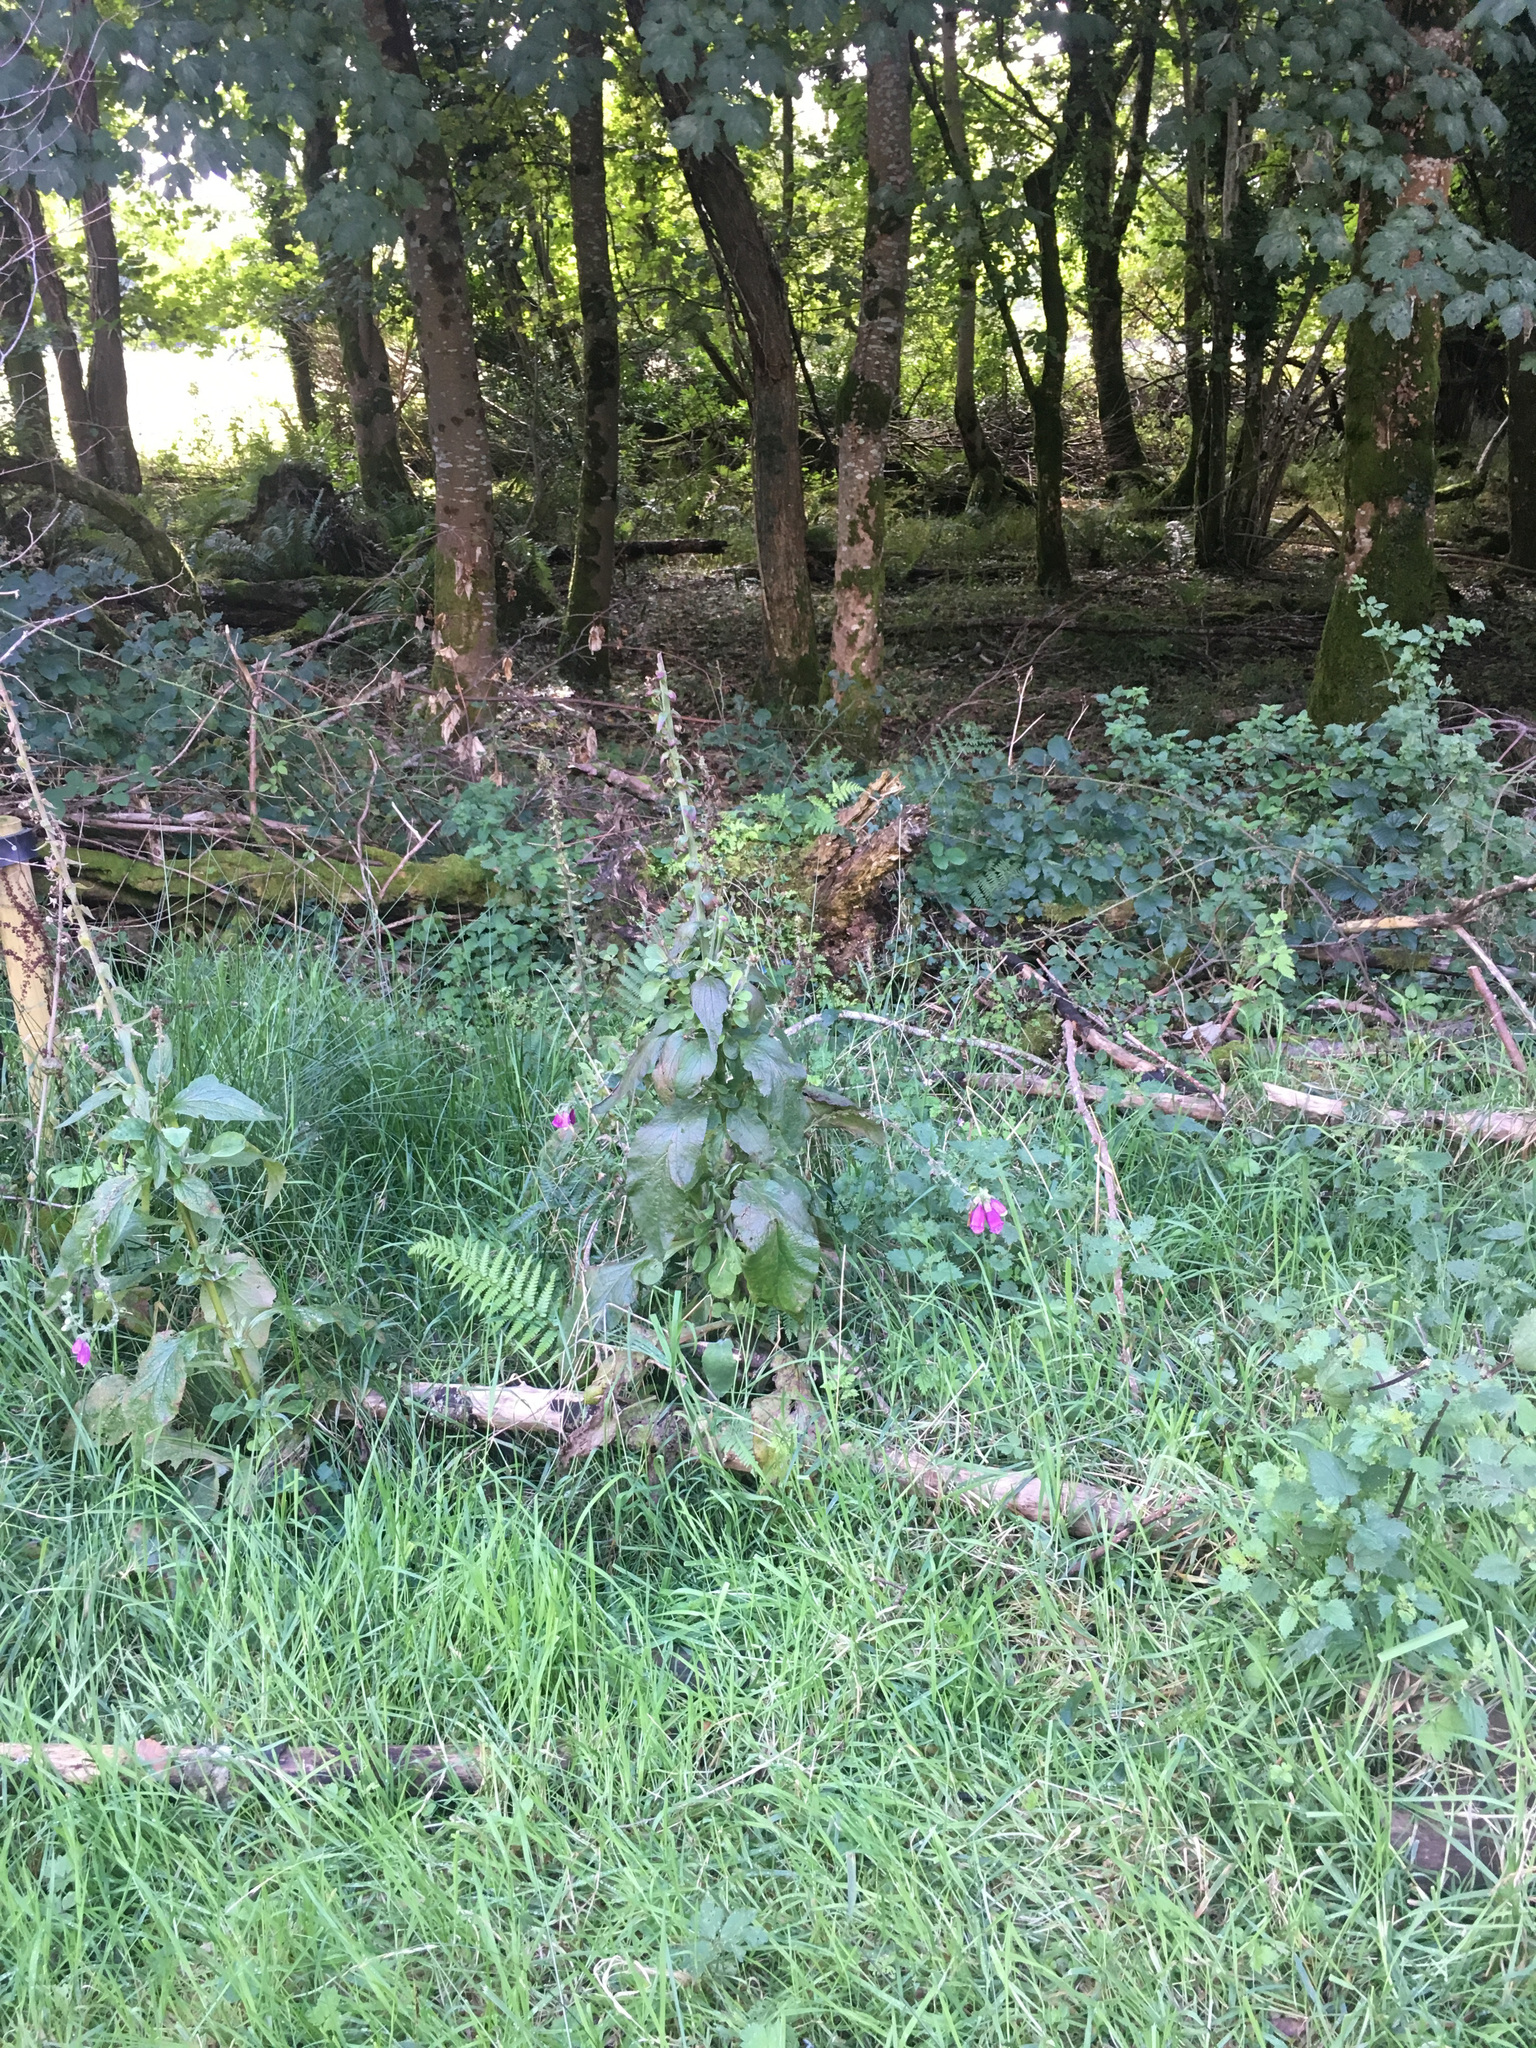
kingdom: Plantae
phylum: Tracheophyta
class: Magnoliopsida
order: Lamiales
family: Plantaginaceae
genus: Digitalis
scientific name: Digitalis purpurea
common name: Foxglove
